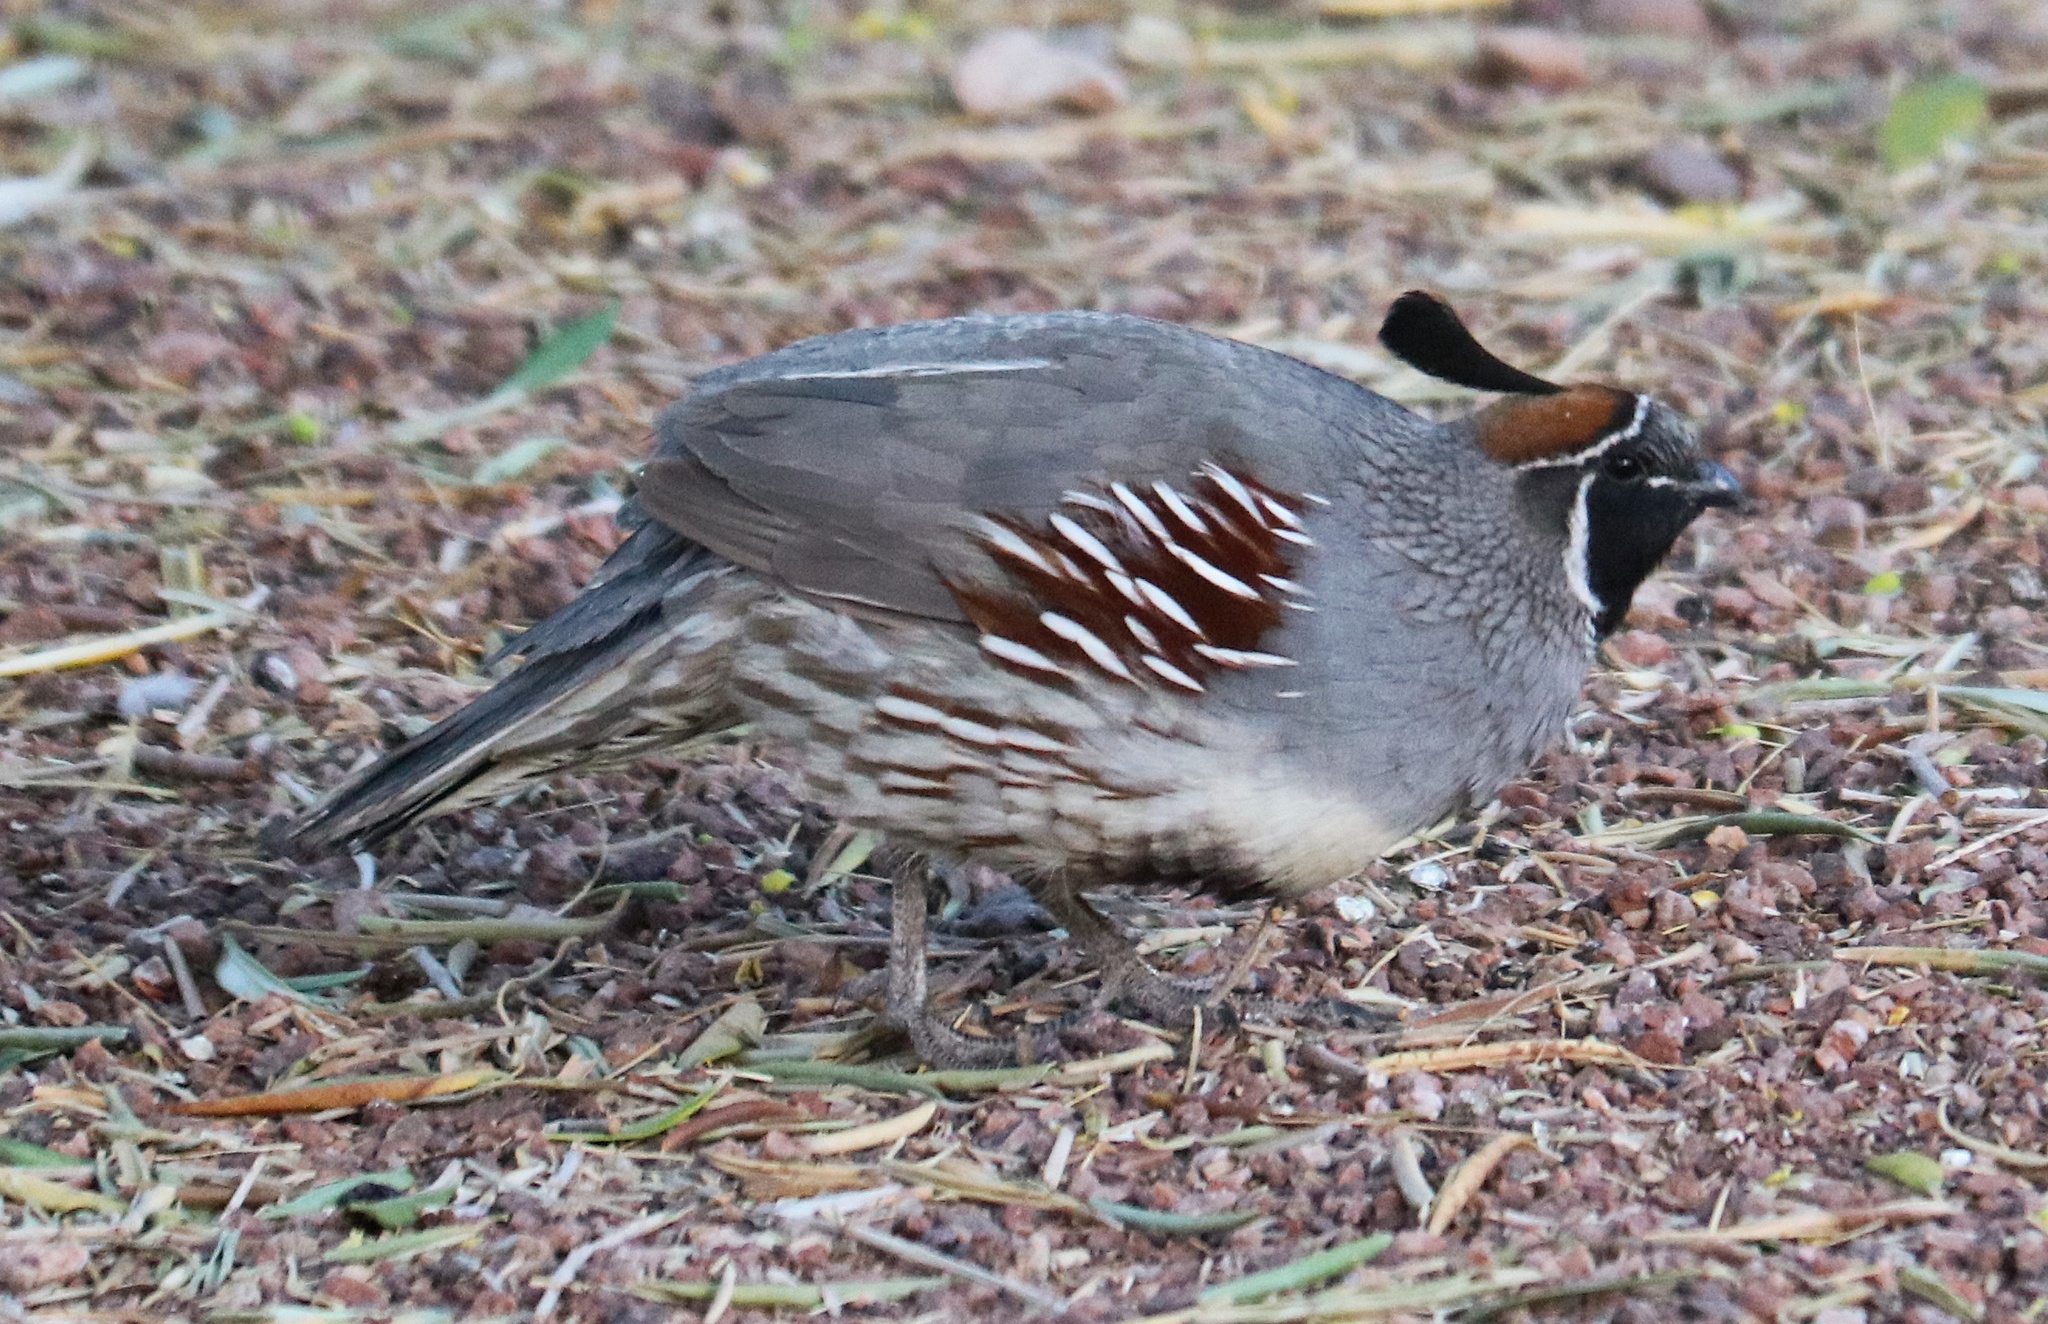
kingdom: Animalia
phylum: Chordata
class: Aves
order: Galliformes
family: Odontophoridae
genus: Callipepla
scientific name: Callipepla gambelii
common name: Gambel's quail
